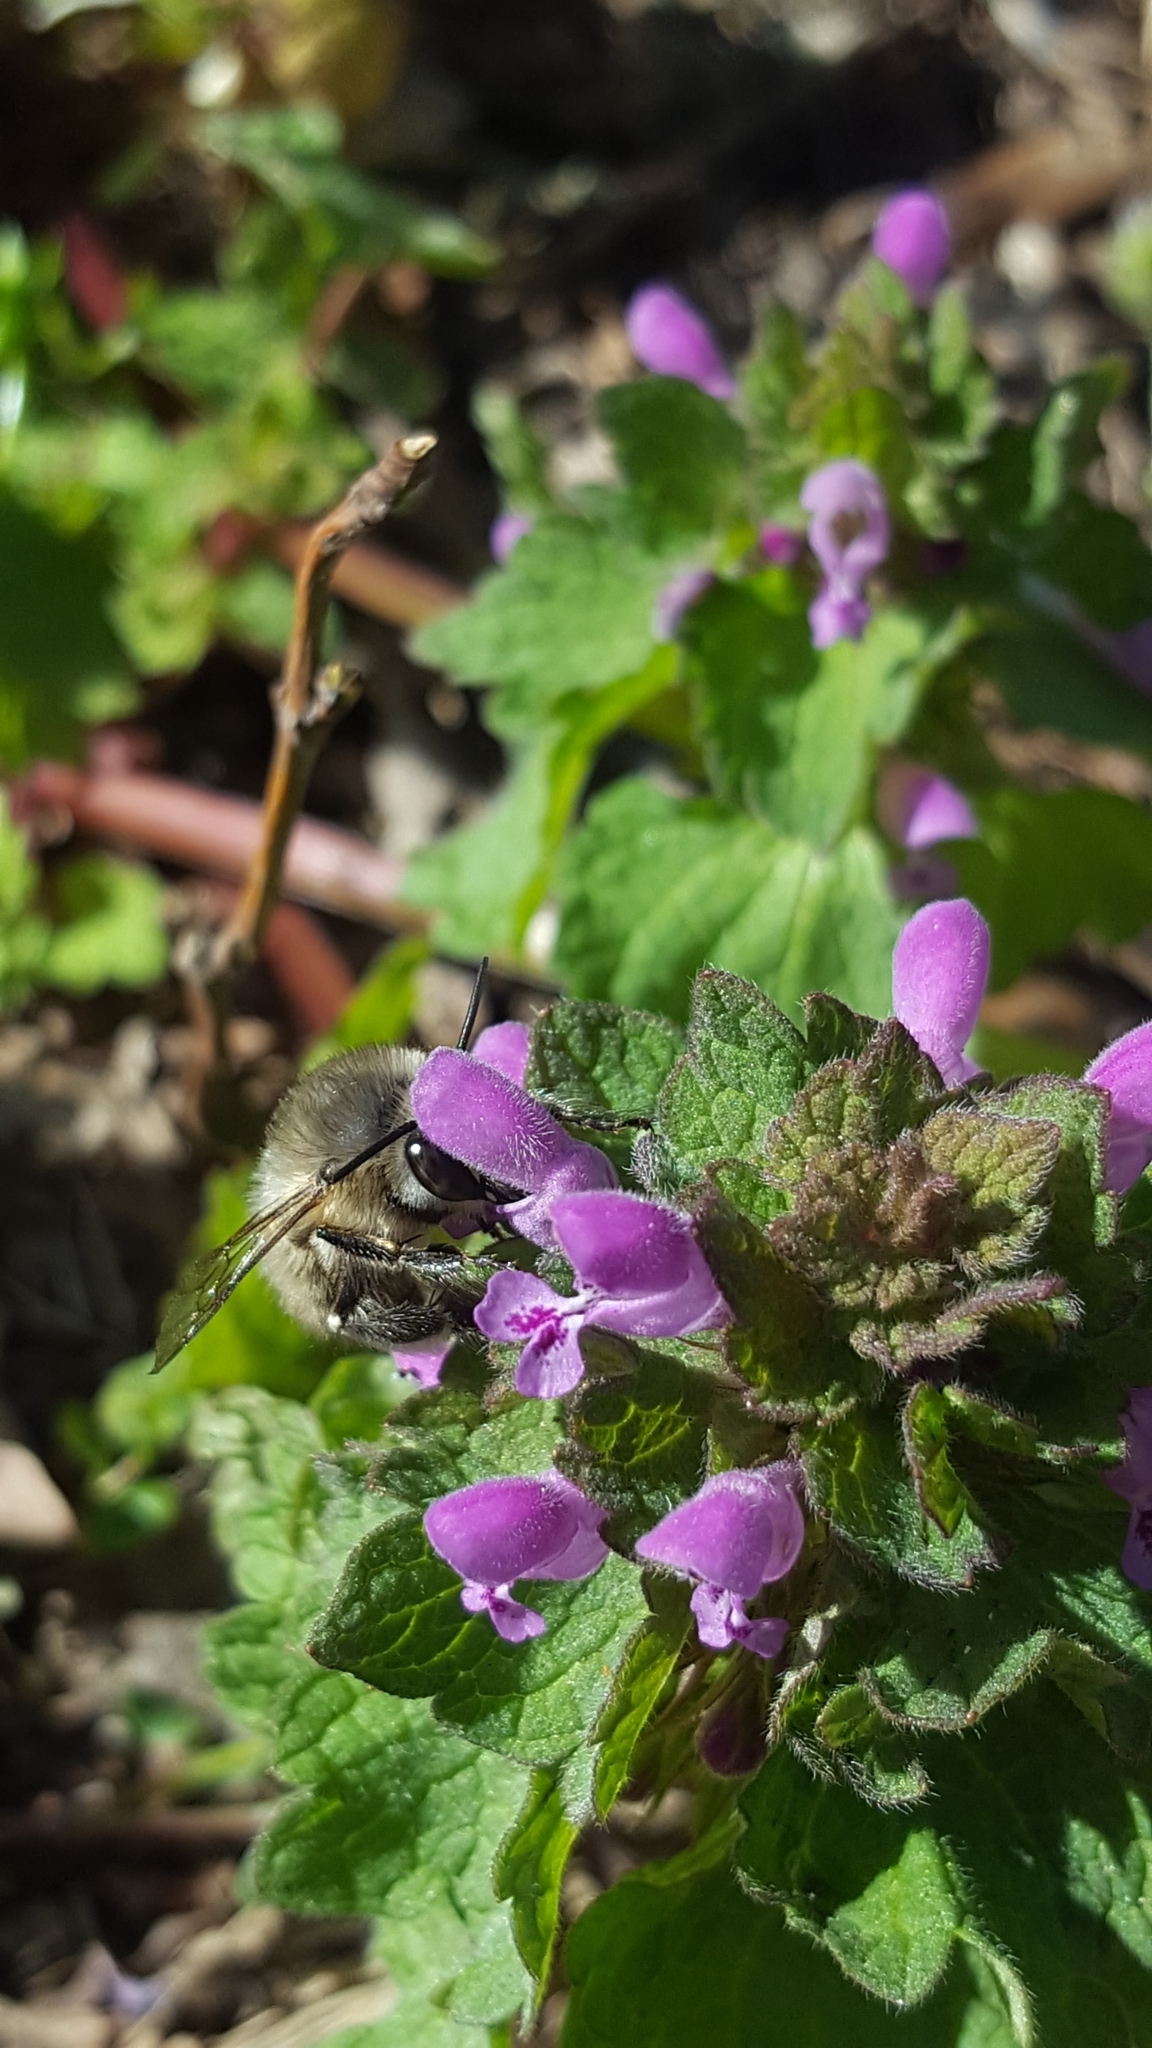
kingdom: Animalia
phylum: Arthropoda
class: Insecta
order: Hymenoptera
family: Apidae
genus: Anthophora
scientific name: Anthophora plumipes
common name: Hairy-footed flower bee
